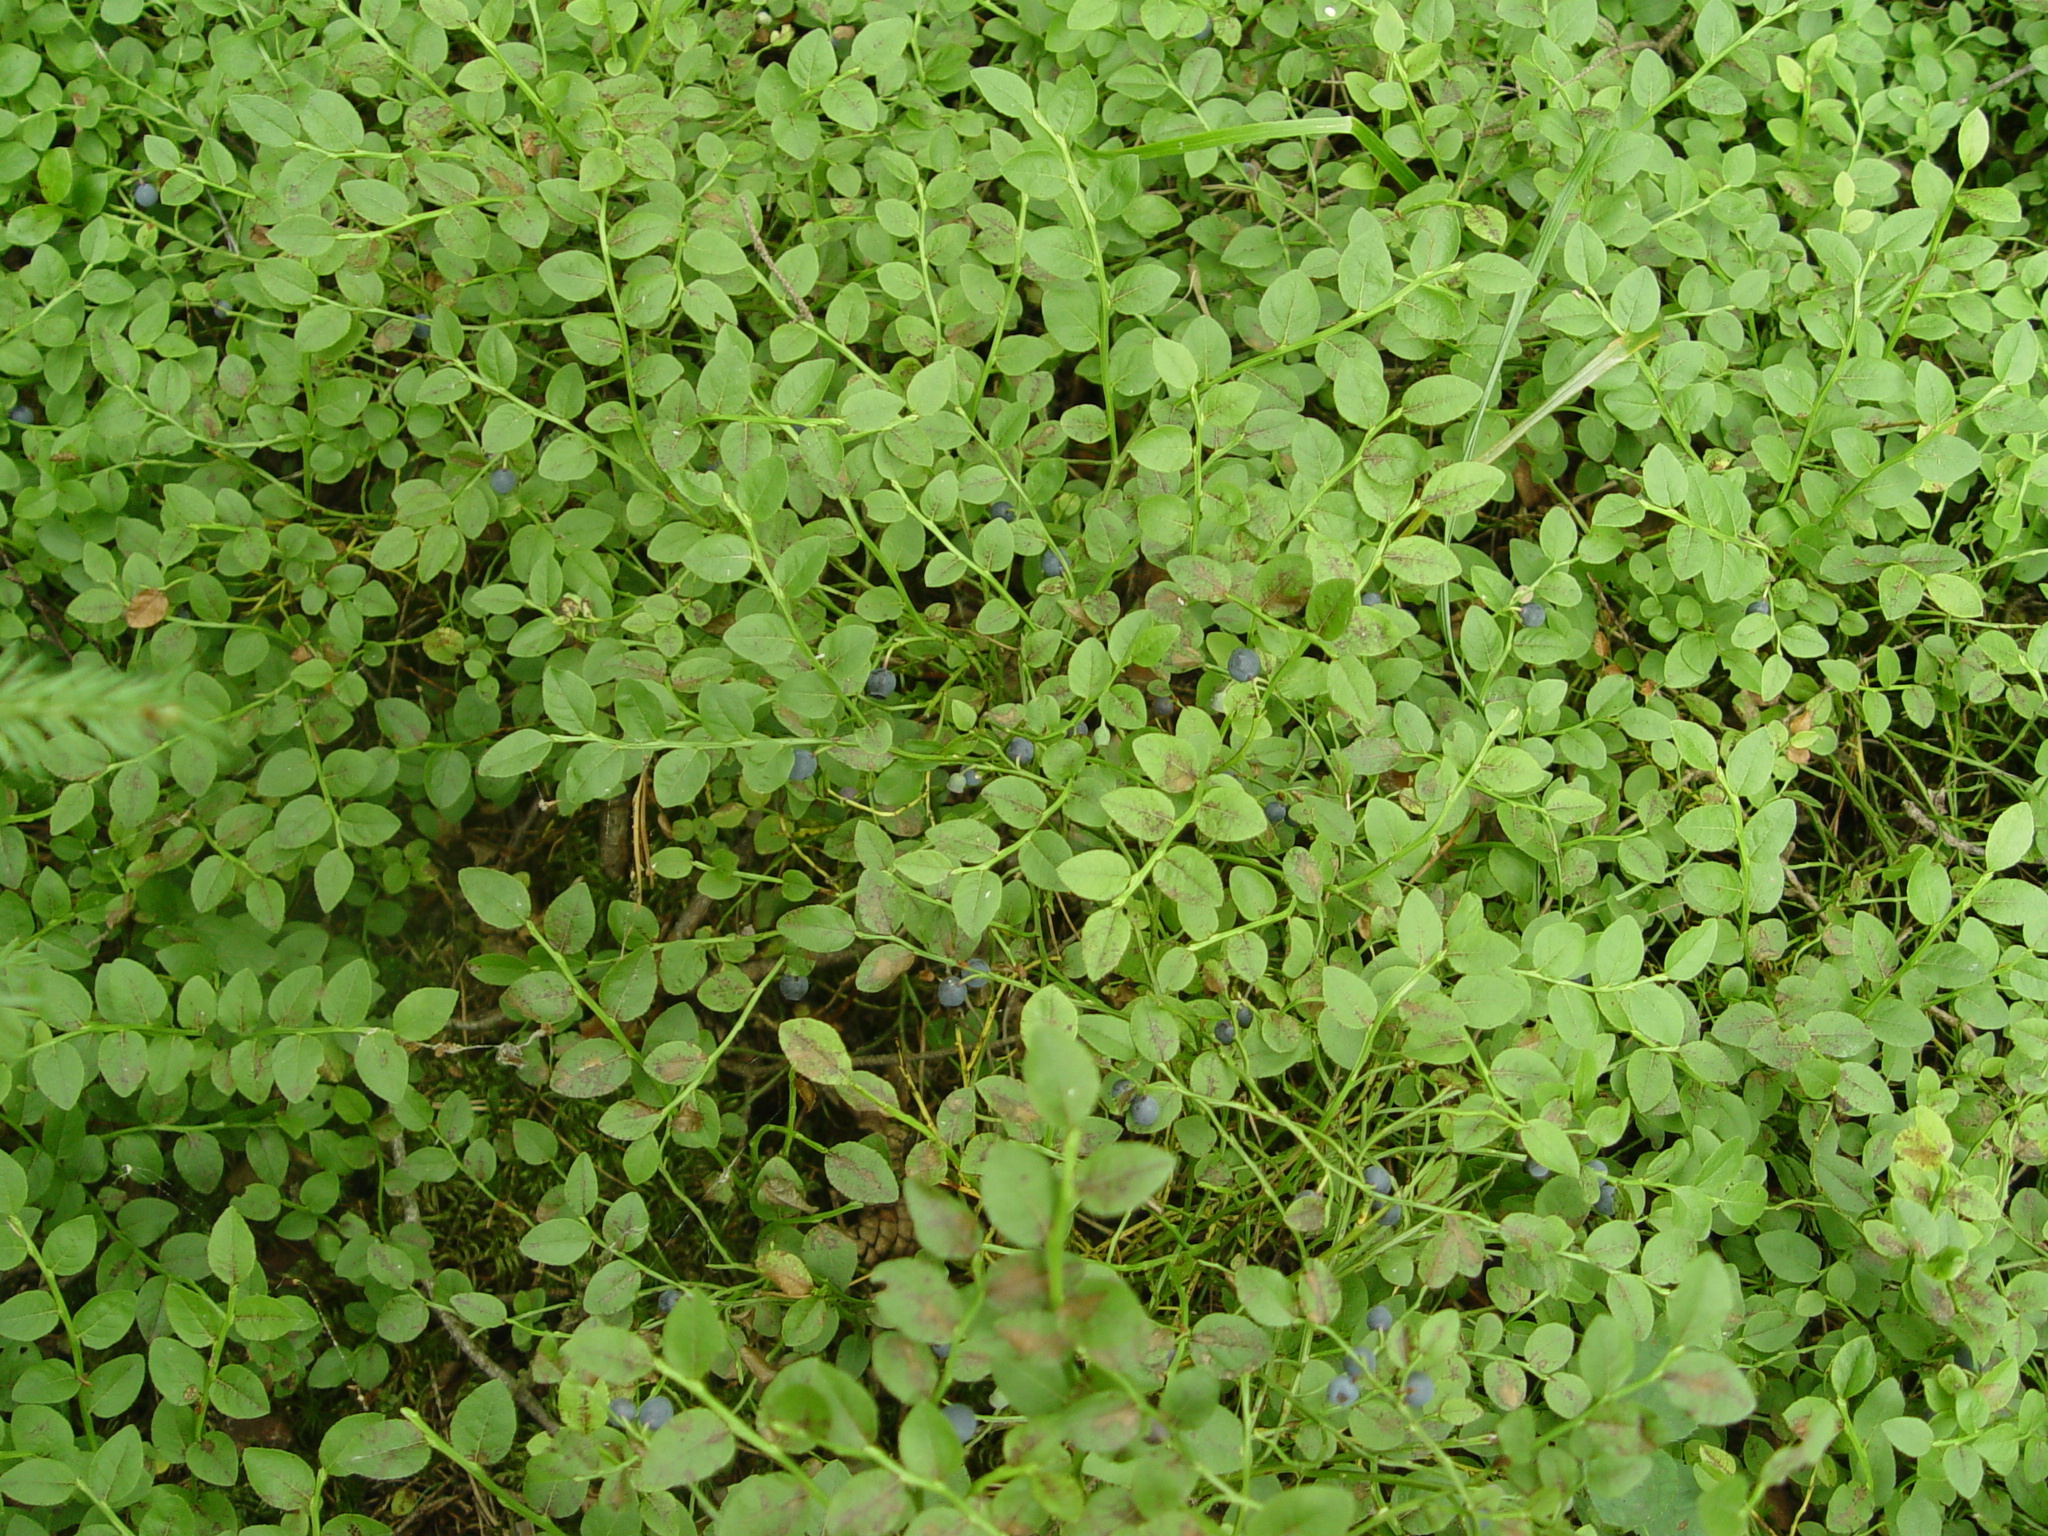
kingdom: Plantae
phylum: Tracheophyta
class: Magnoliopsida
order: Ericales
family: Ericaceae
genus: Vaccinium
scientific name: Vaccinium myrtillus
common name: Bilberry
